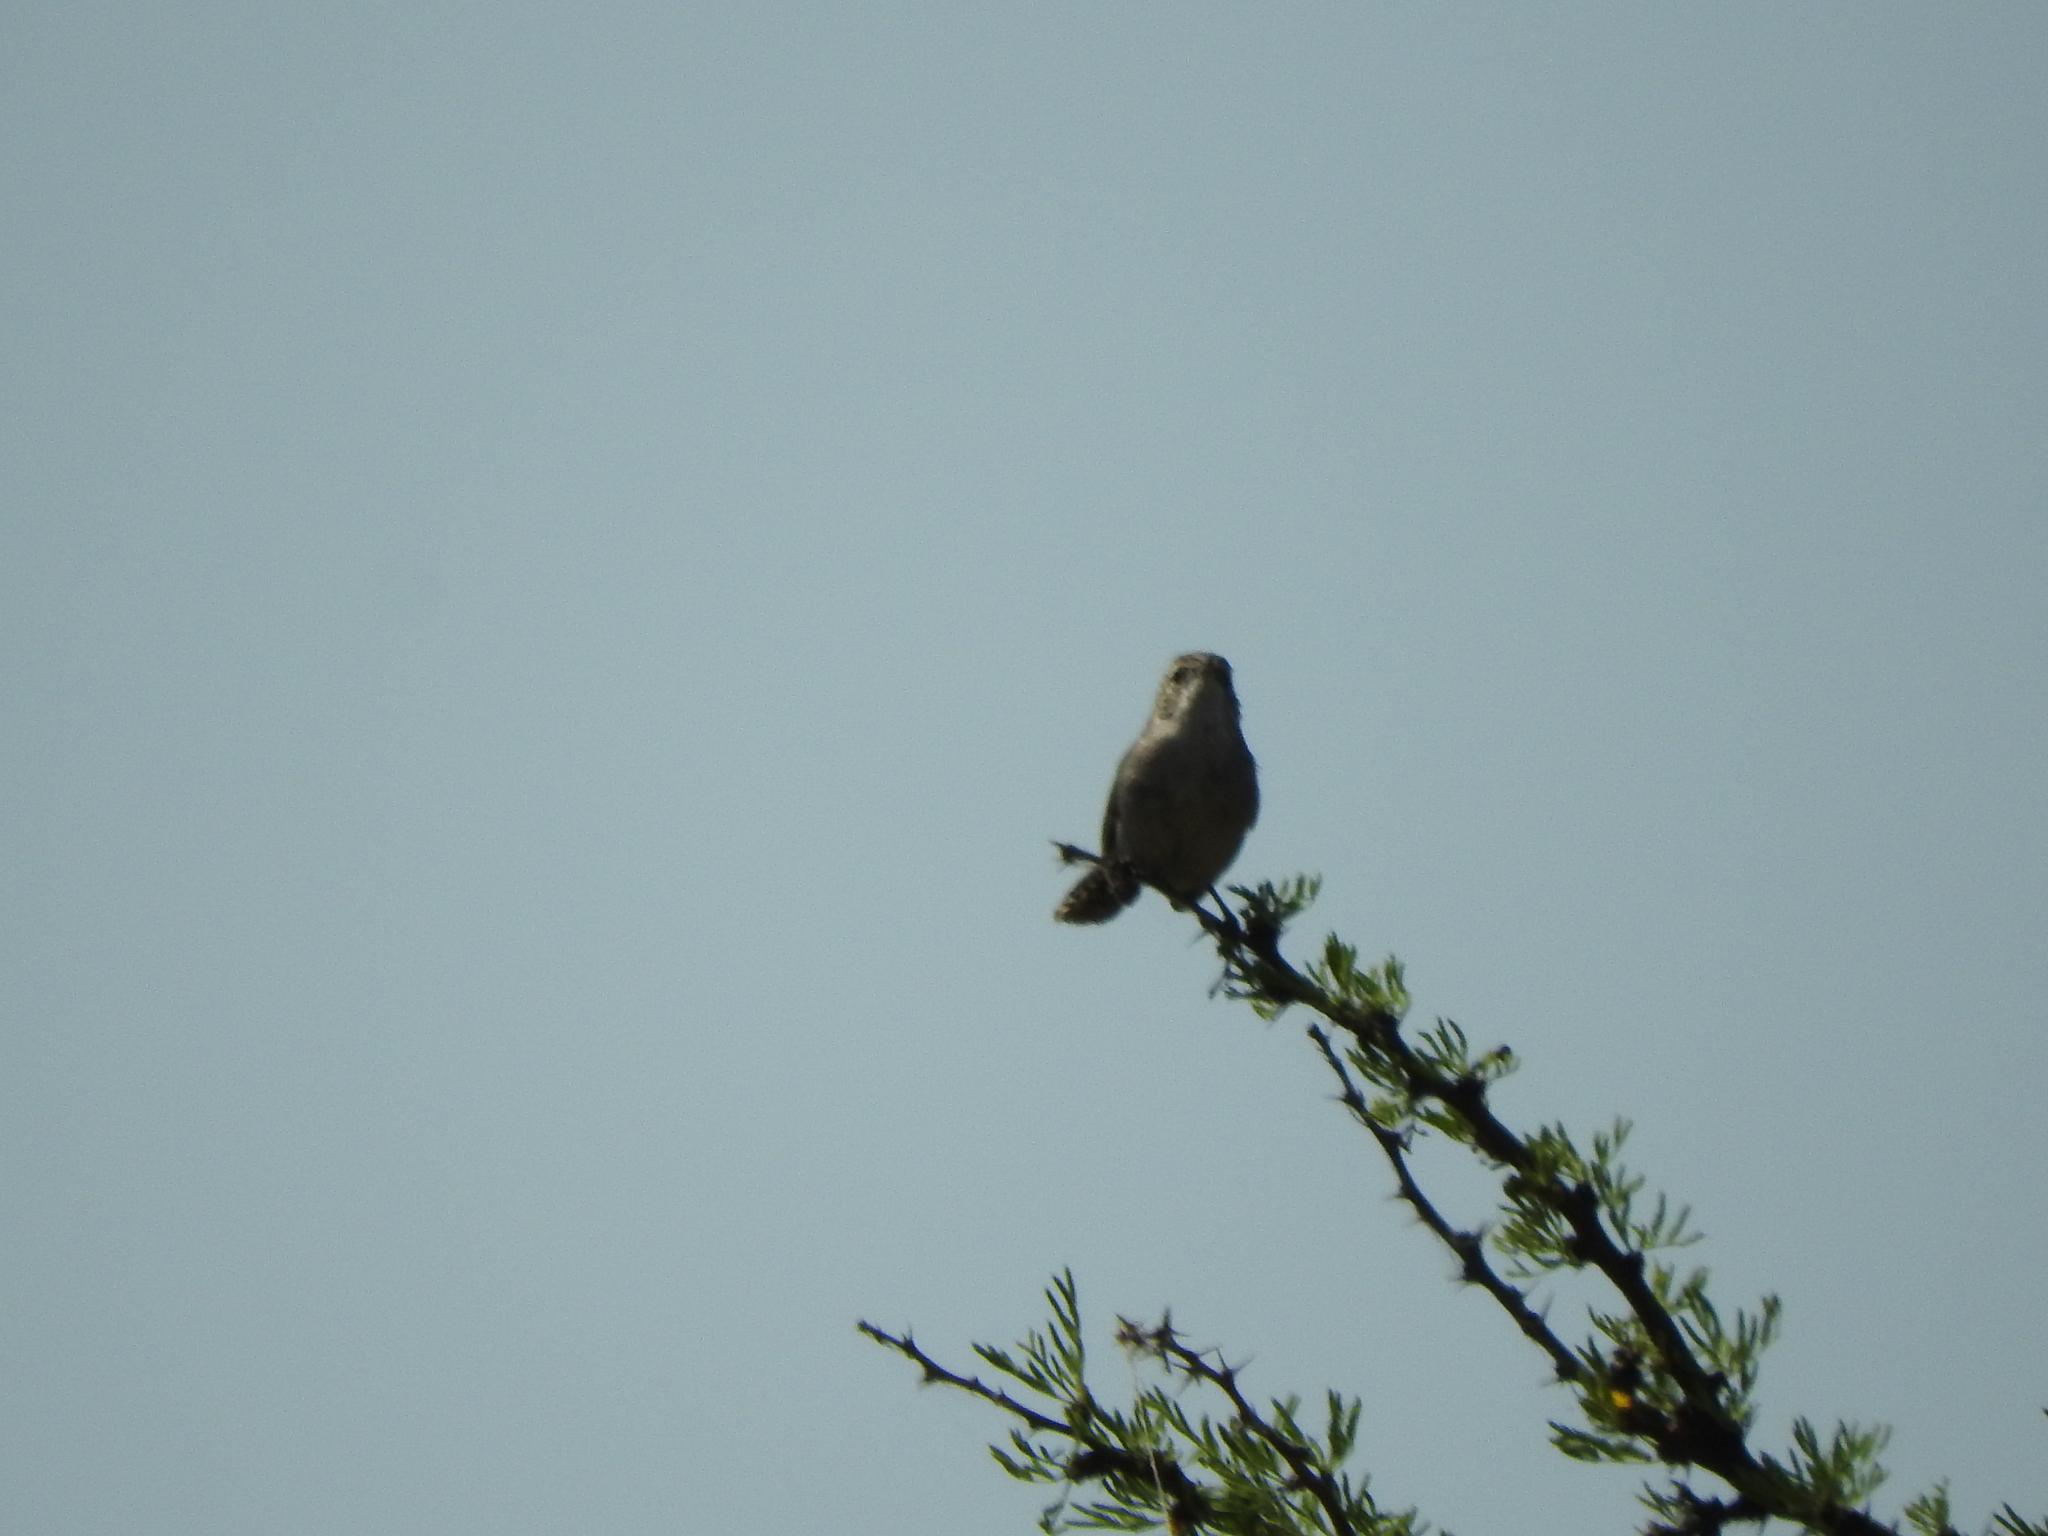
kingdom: Animalia
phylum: Chordata
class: Aves
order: Passeriformes
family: Troglodytidae
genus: Thryomanes
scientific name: Thryomanes bewickii
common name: Bewick's wren
